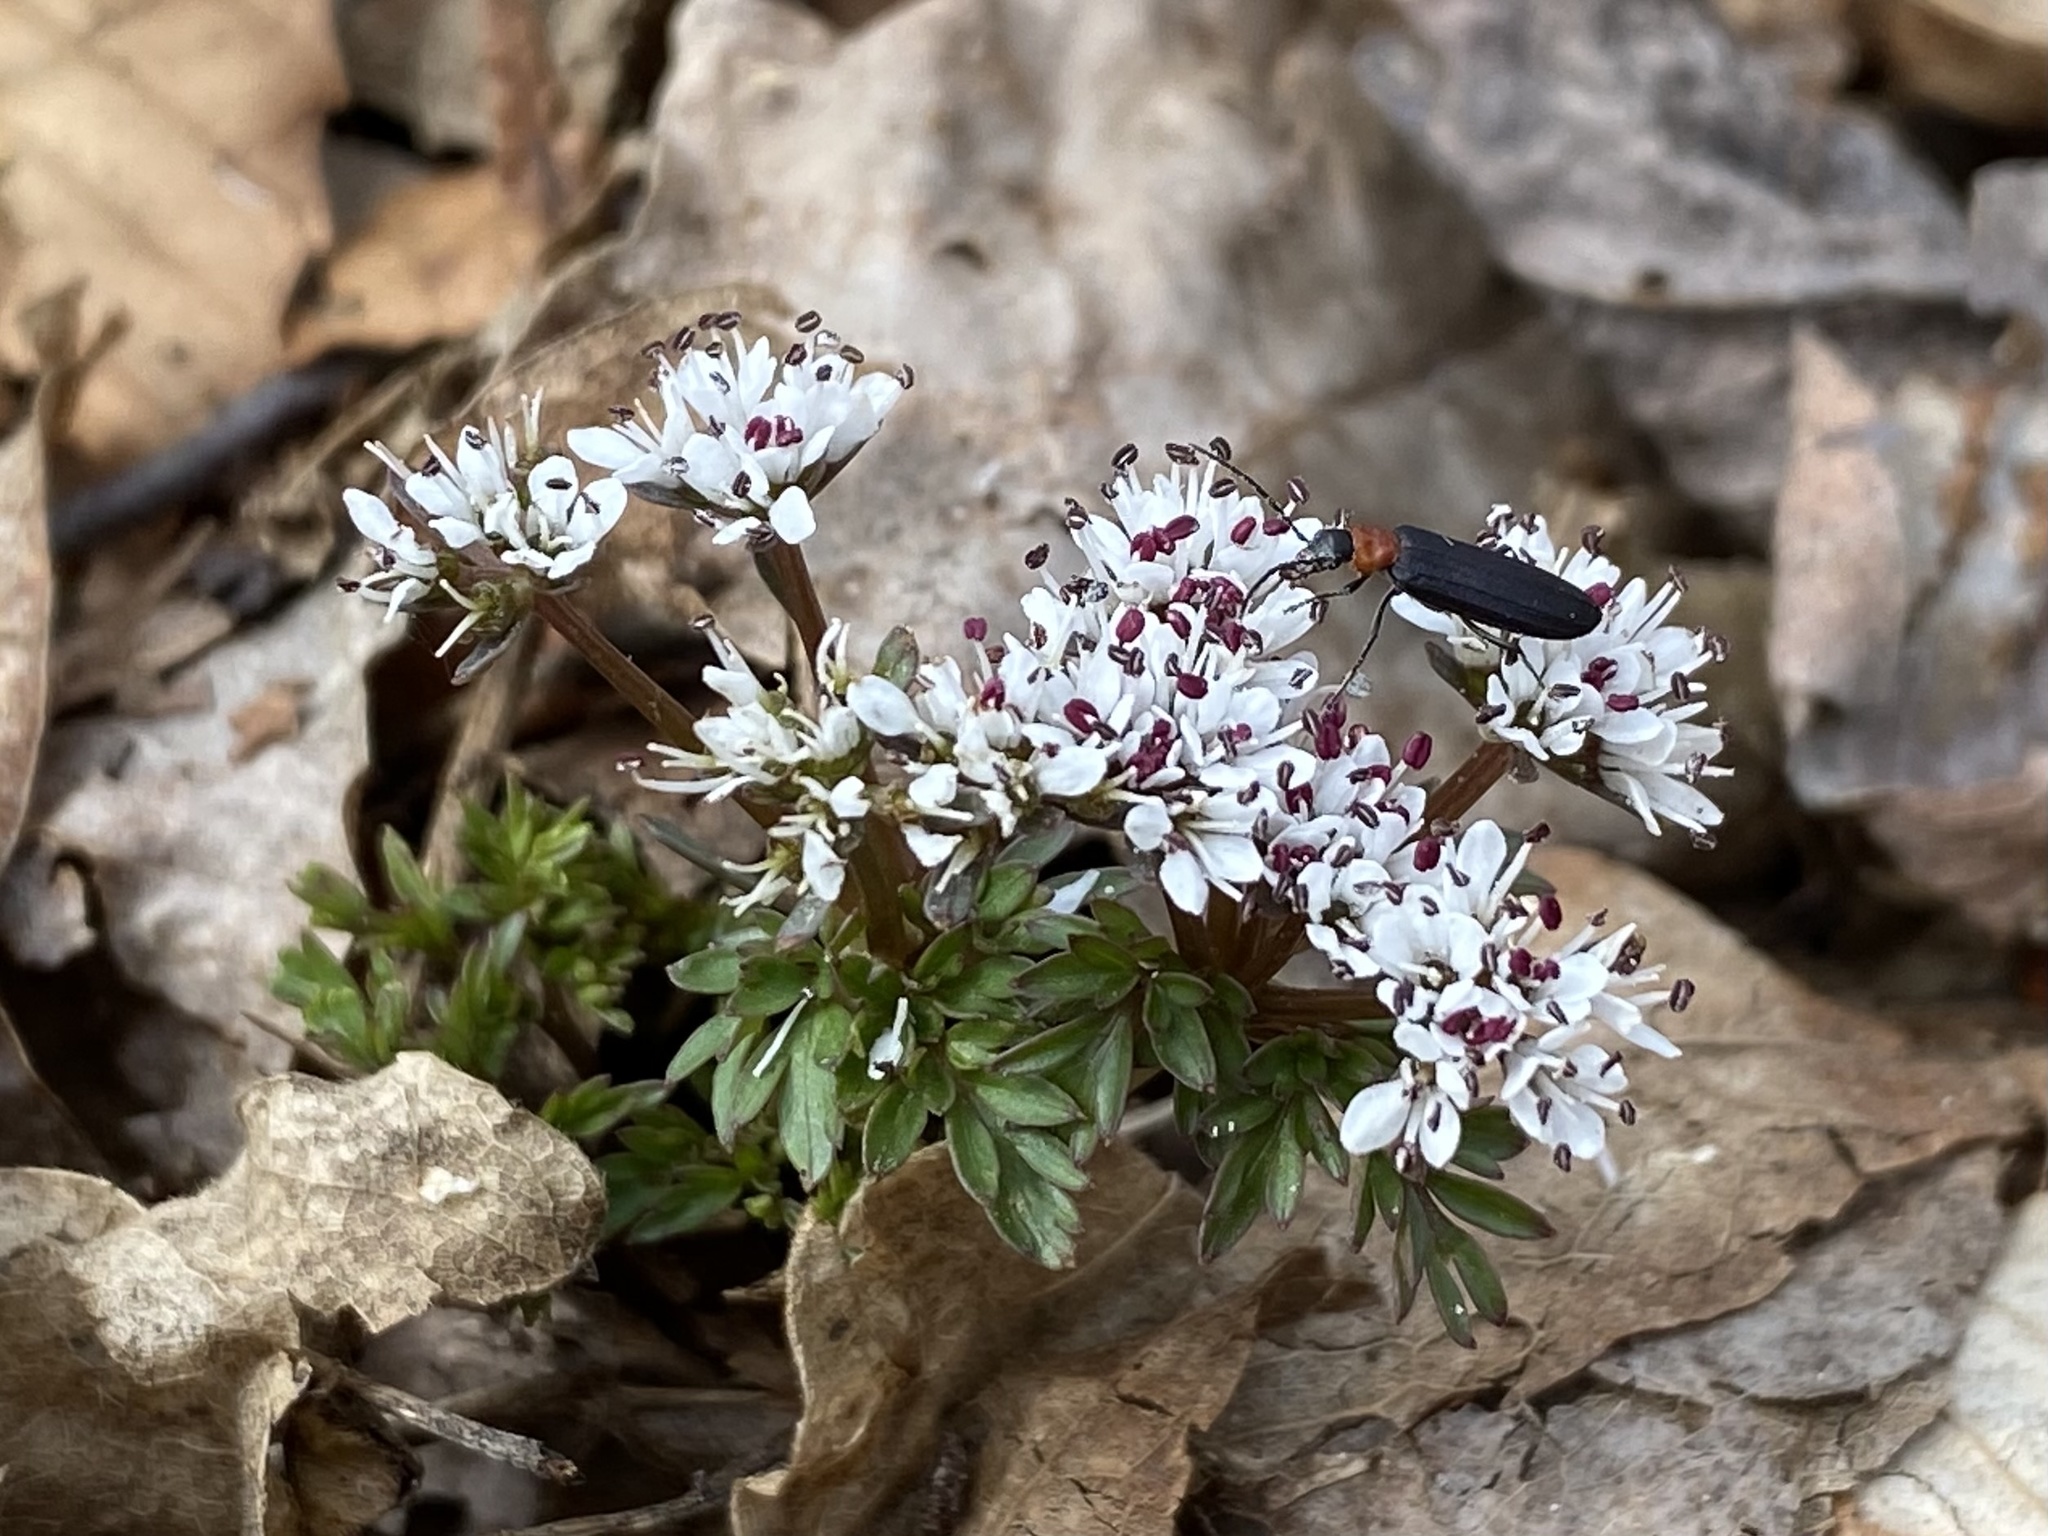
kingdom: Plantae
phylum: Tracheophyta
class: Magnoliopsida
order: Apiales
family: Apiaceae
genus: Erigenia
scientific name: Erigenia bulbosa
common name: Pepper-and-salt
